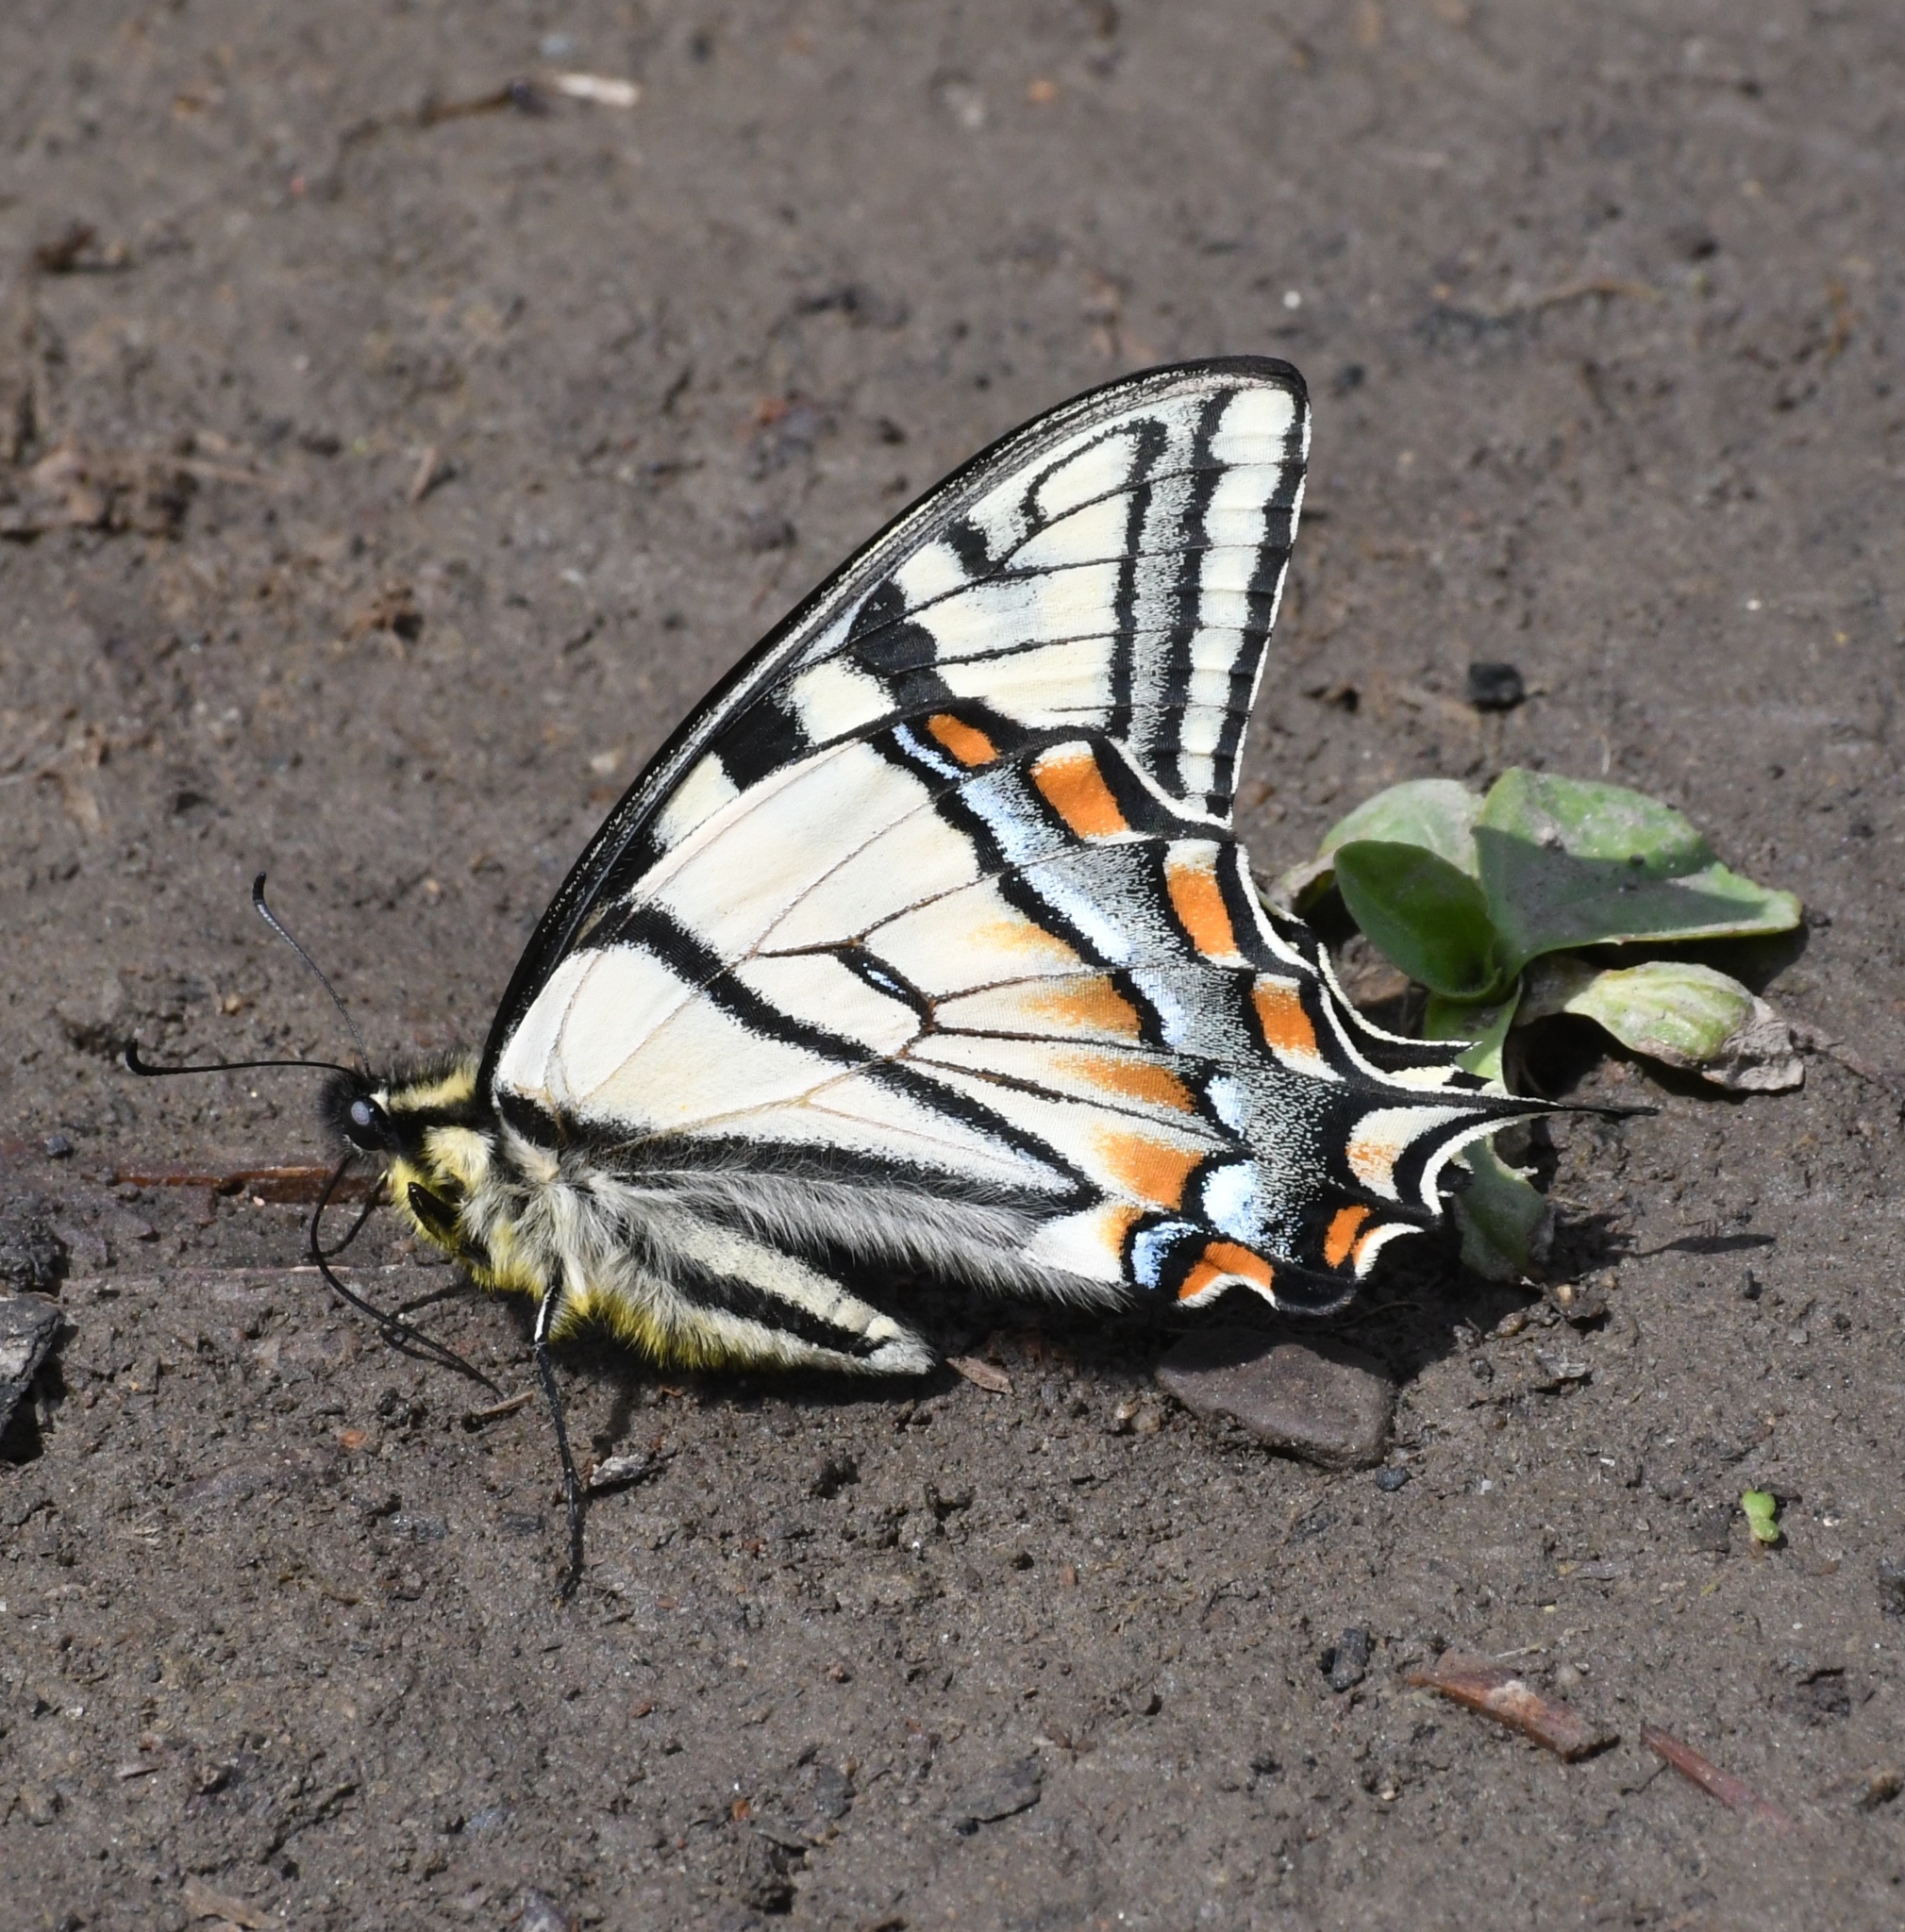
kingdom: Animalia
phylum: Arthropoda
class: Insecta
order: Lepidoptera
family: Papilionidae
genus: Papilio
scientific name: Papilio canadensis
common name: Canadian tiger swallowtail
